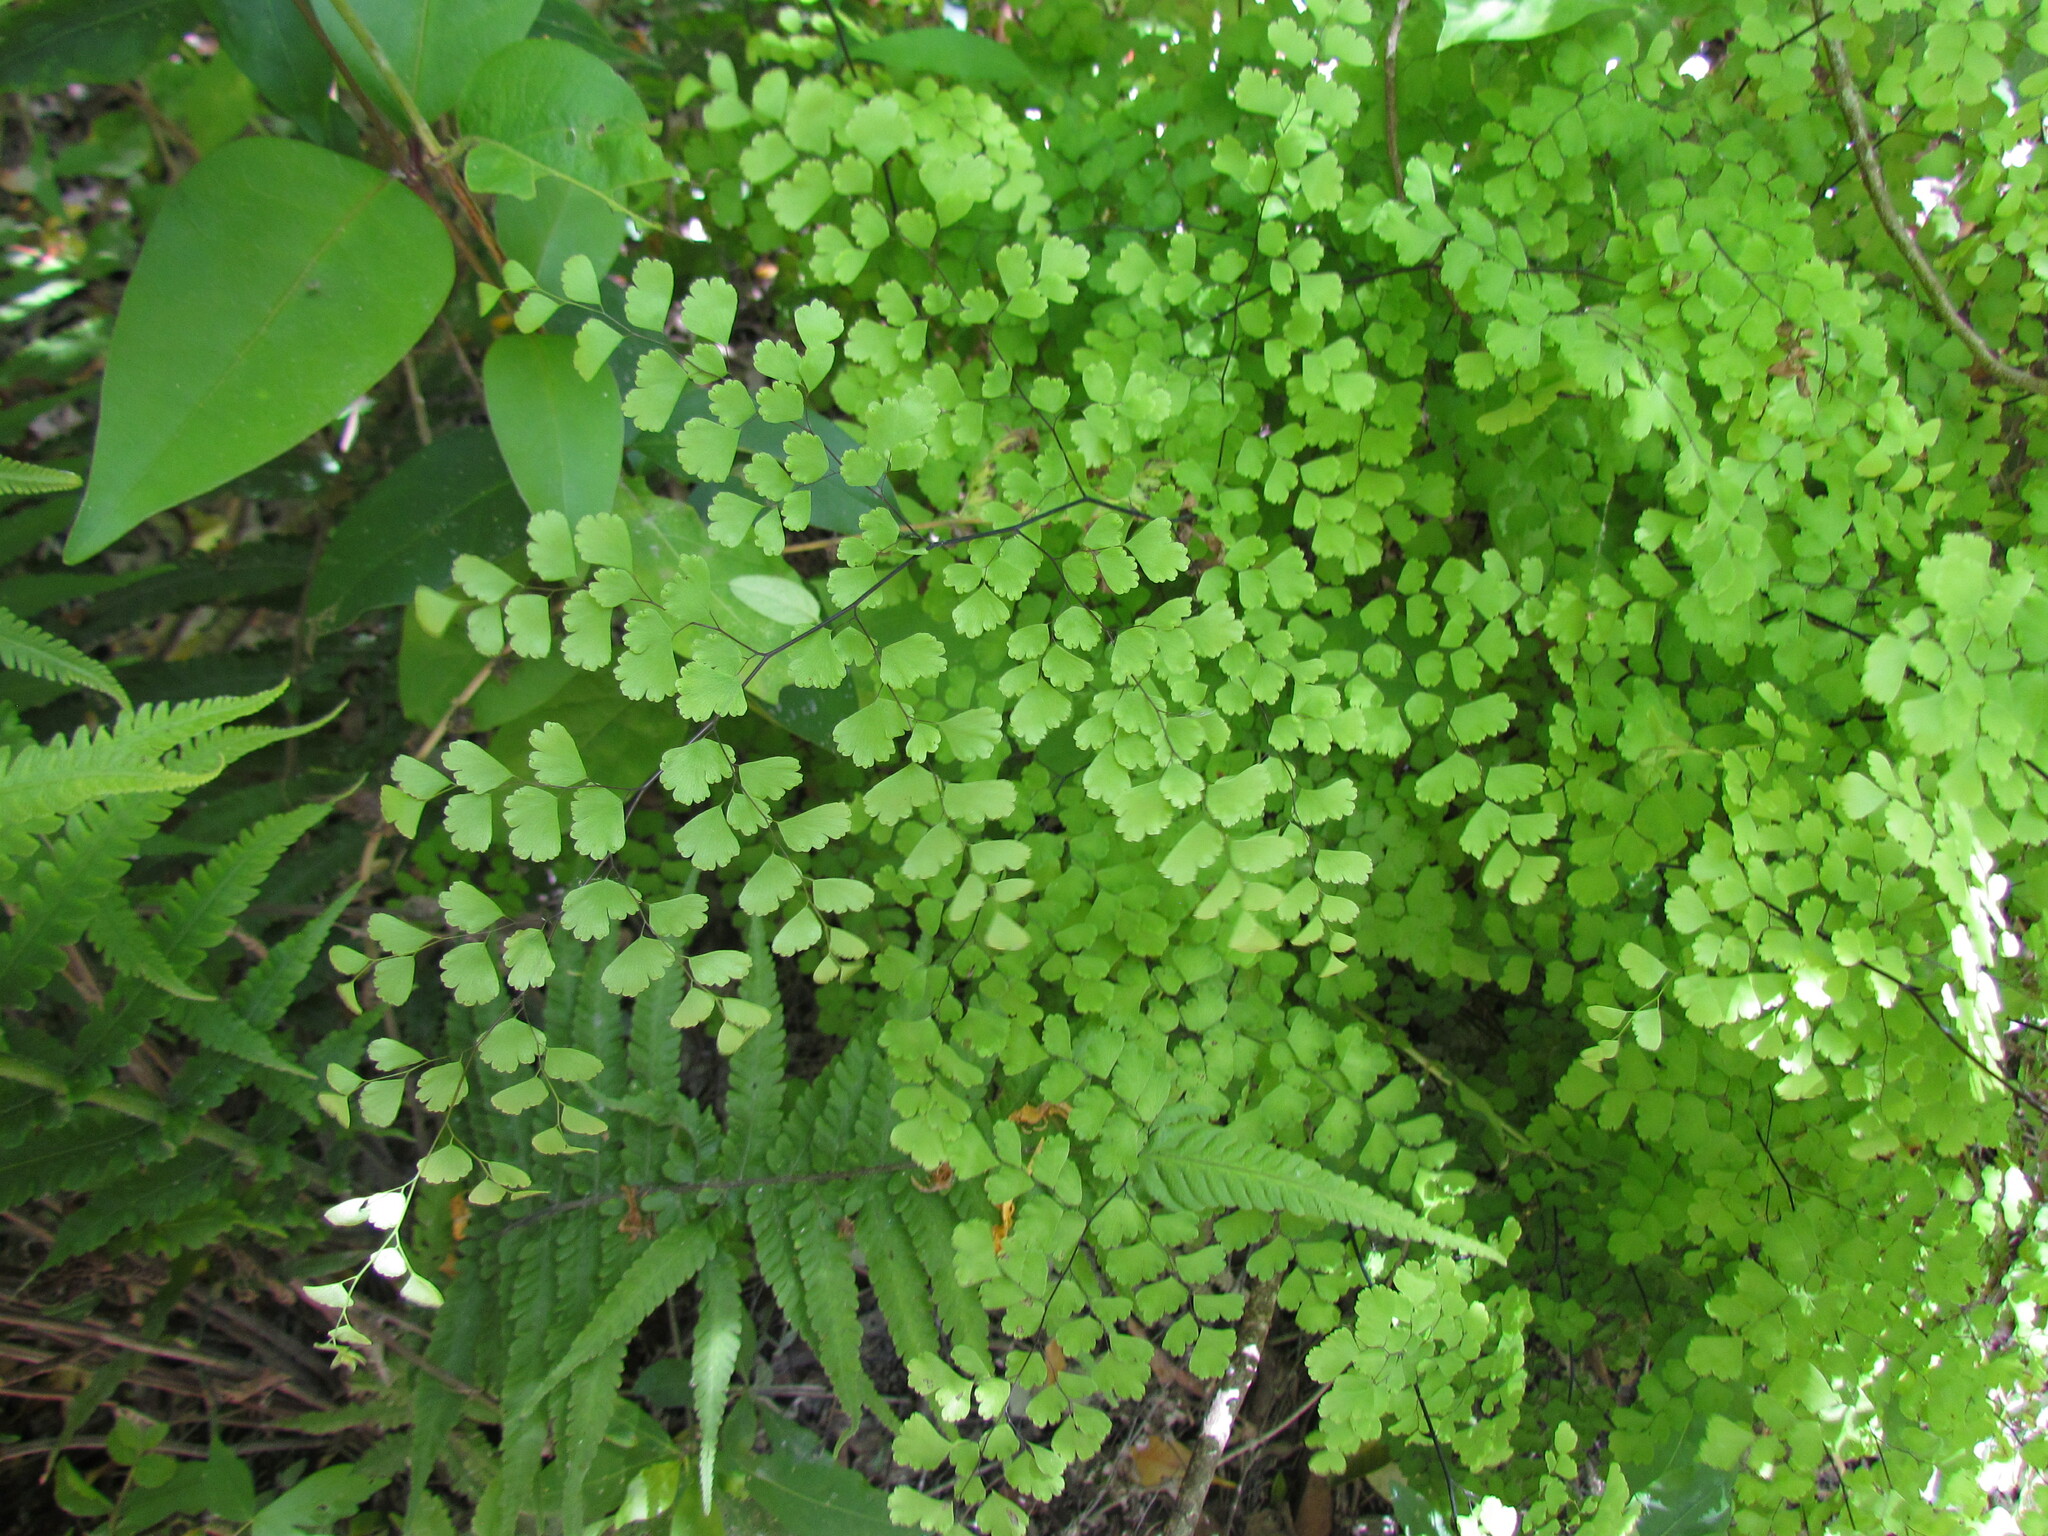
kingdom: Plantae
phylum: Tracheophyta
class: Polypodiopsida
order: Polypodiales
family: Pteridaceae
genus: Adiantum
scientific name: Adiantum raddianum
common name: Delta maidenhair fern
